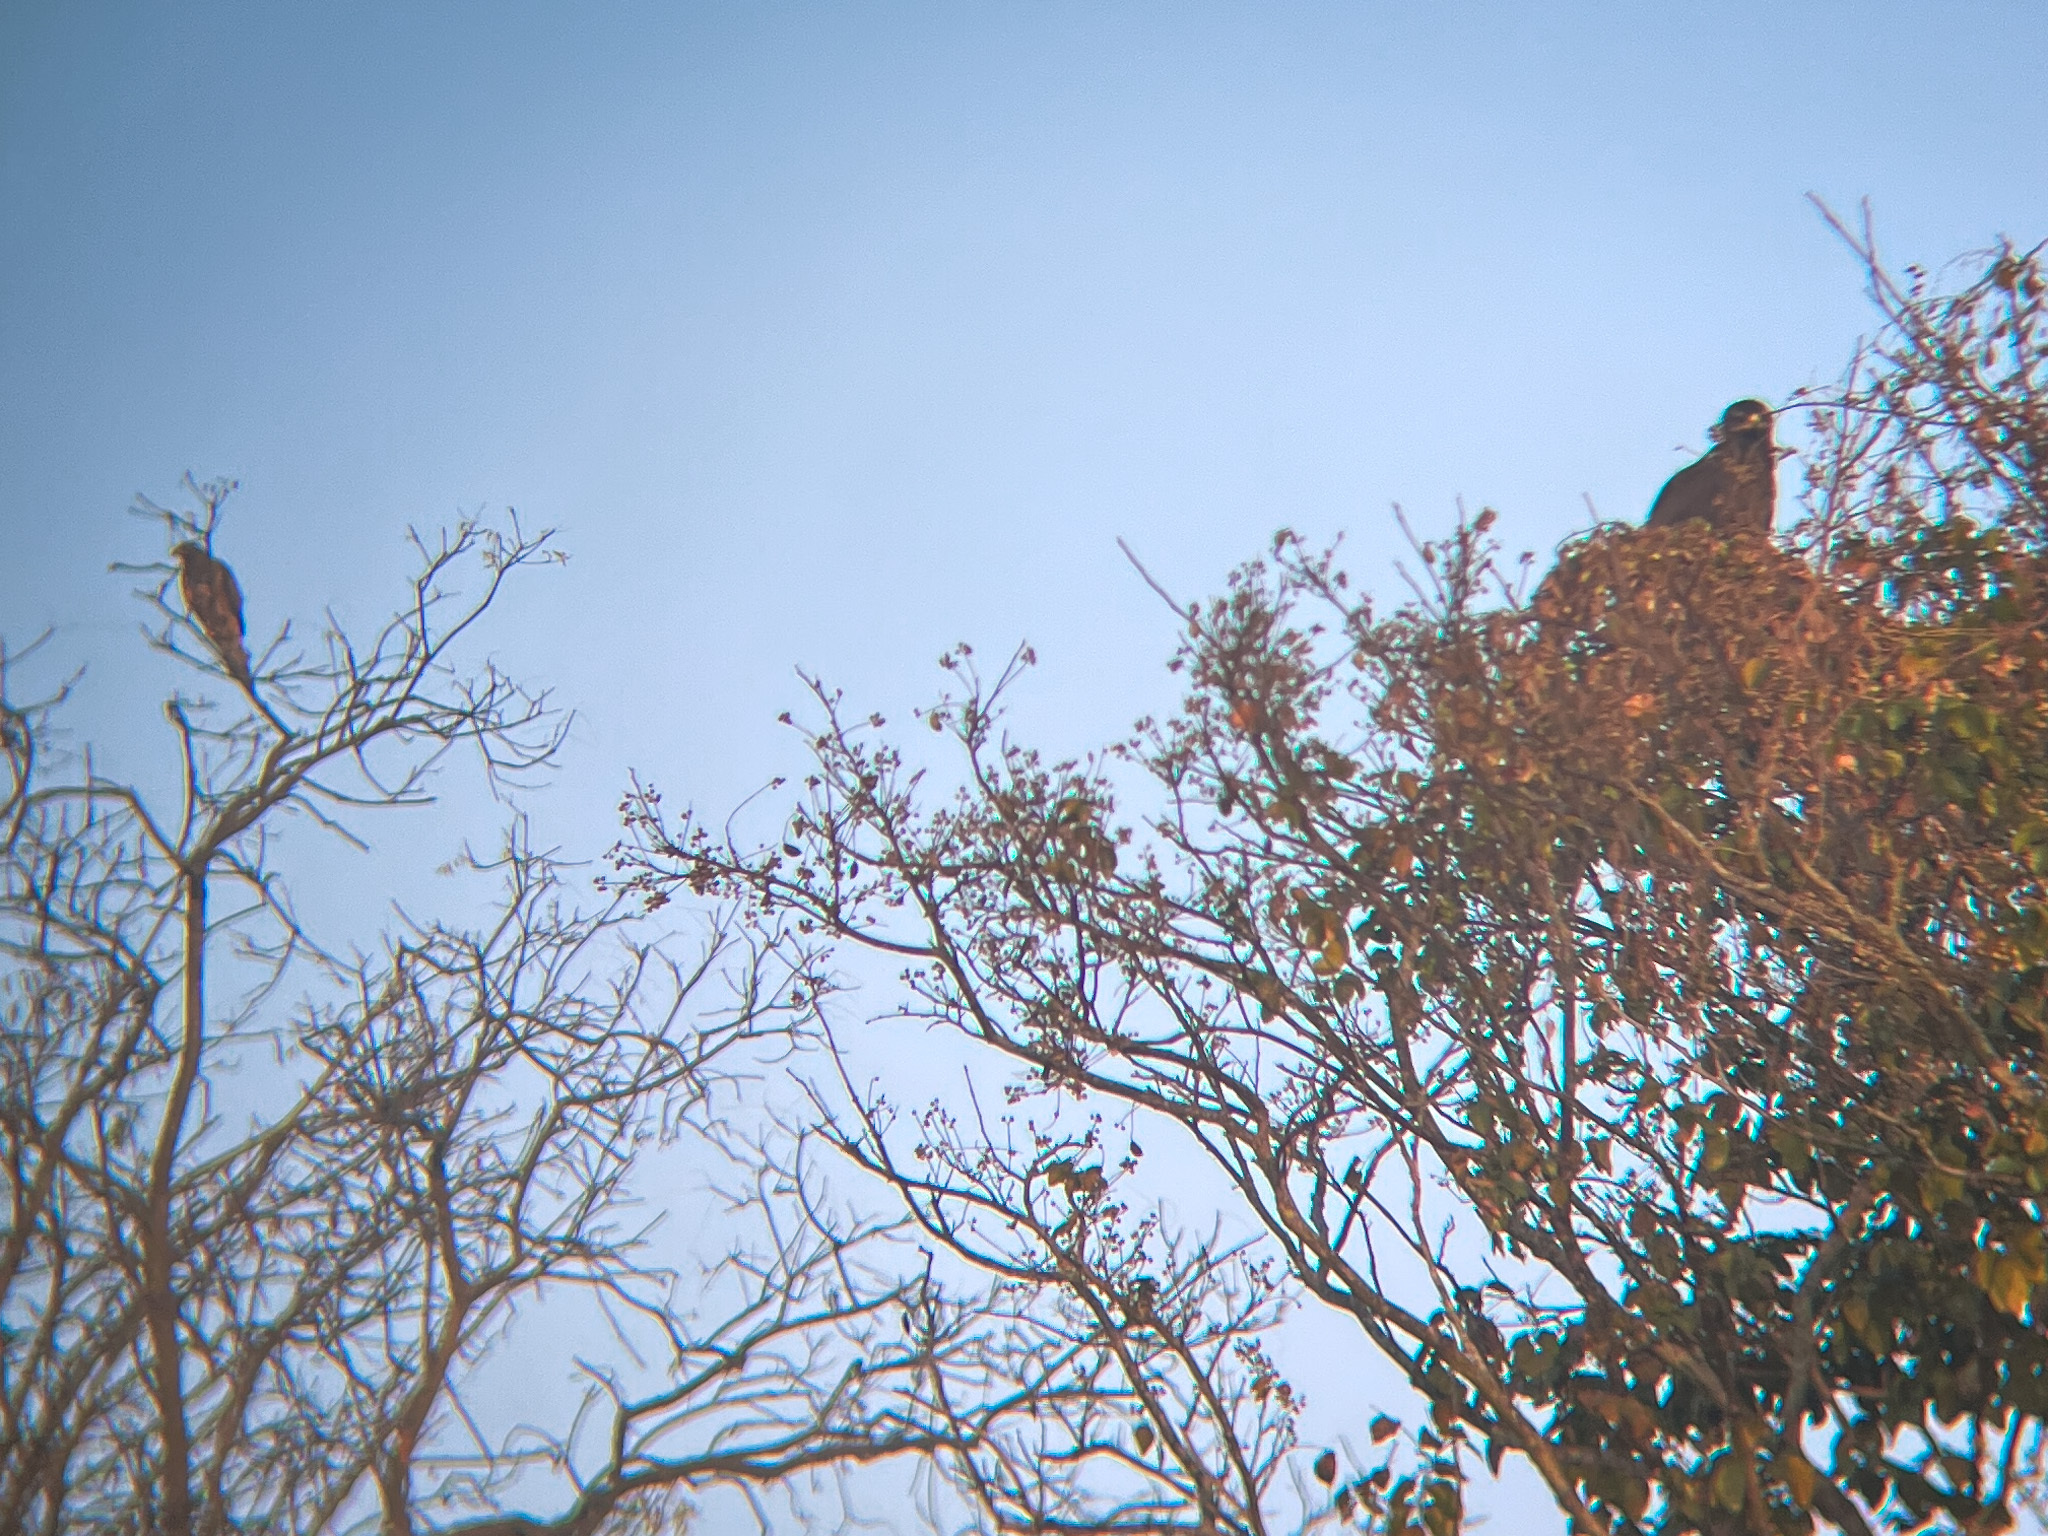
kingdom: Animalia
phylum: Chordata
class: Aves
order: Accipitriformes
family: Accipitridae
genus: Aquila
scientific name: Aquila rapax
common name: Tawny eagle
